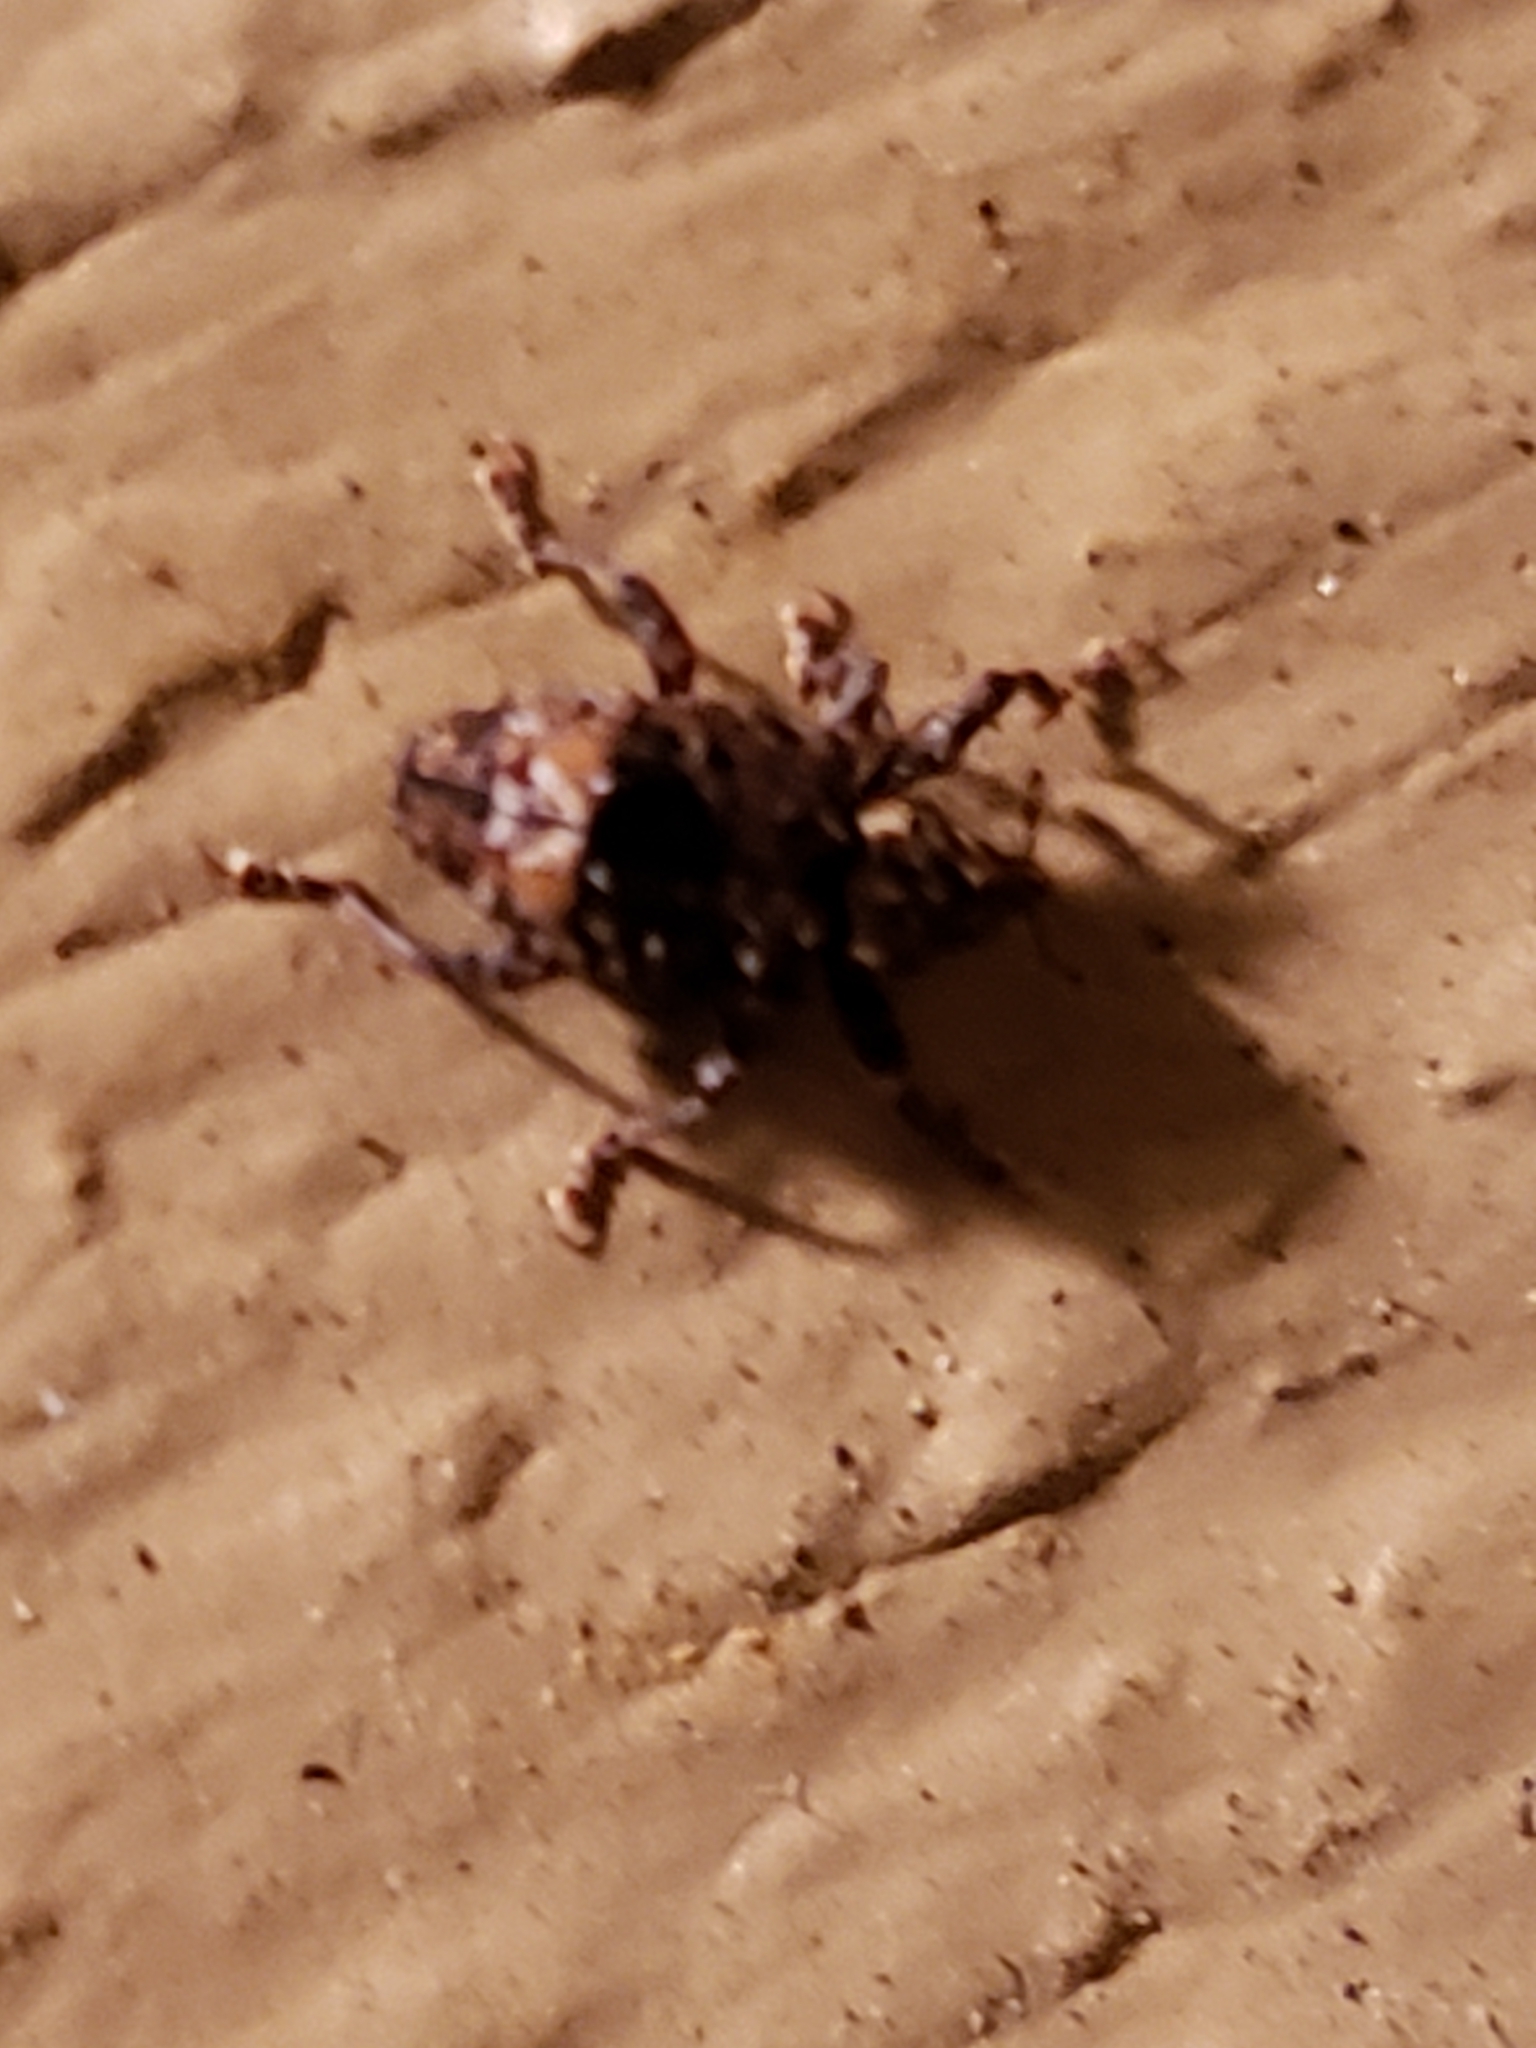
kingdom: Animalia
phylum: Arthropoda
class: Insecta
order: Coleoptera
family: Curculionidae
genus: Conotrachelus
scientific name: Conotrachelus nenuphar
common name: Plum curculio
